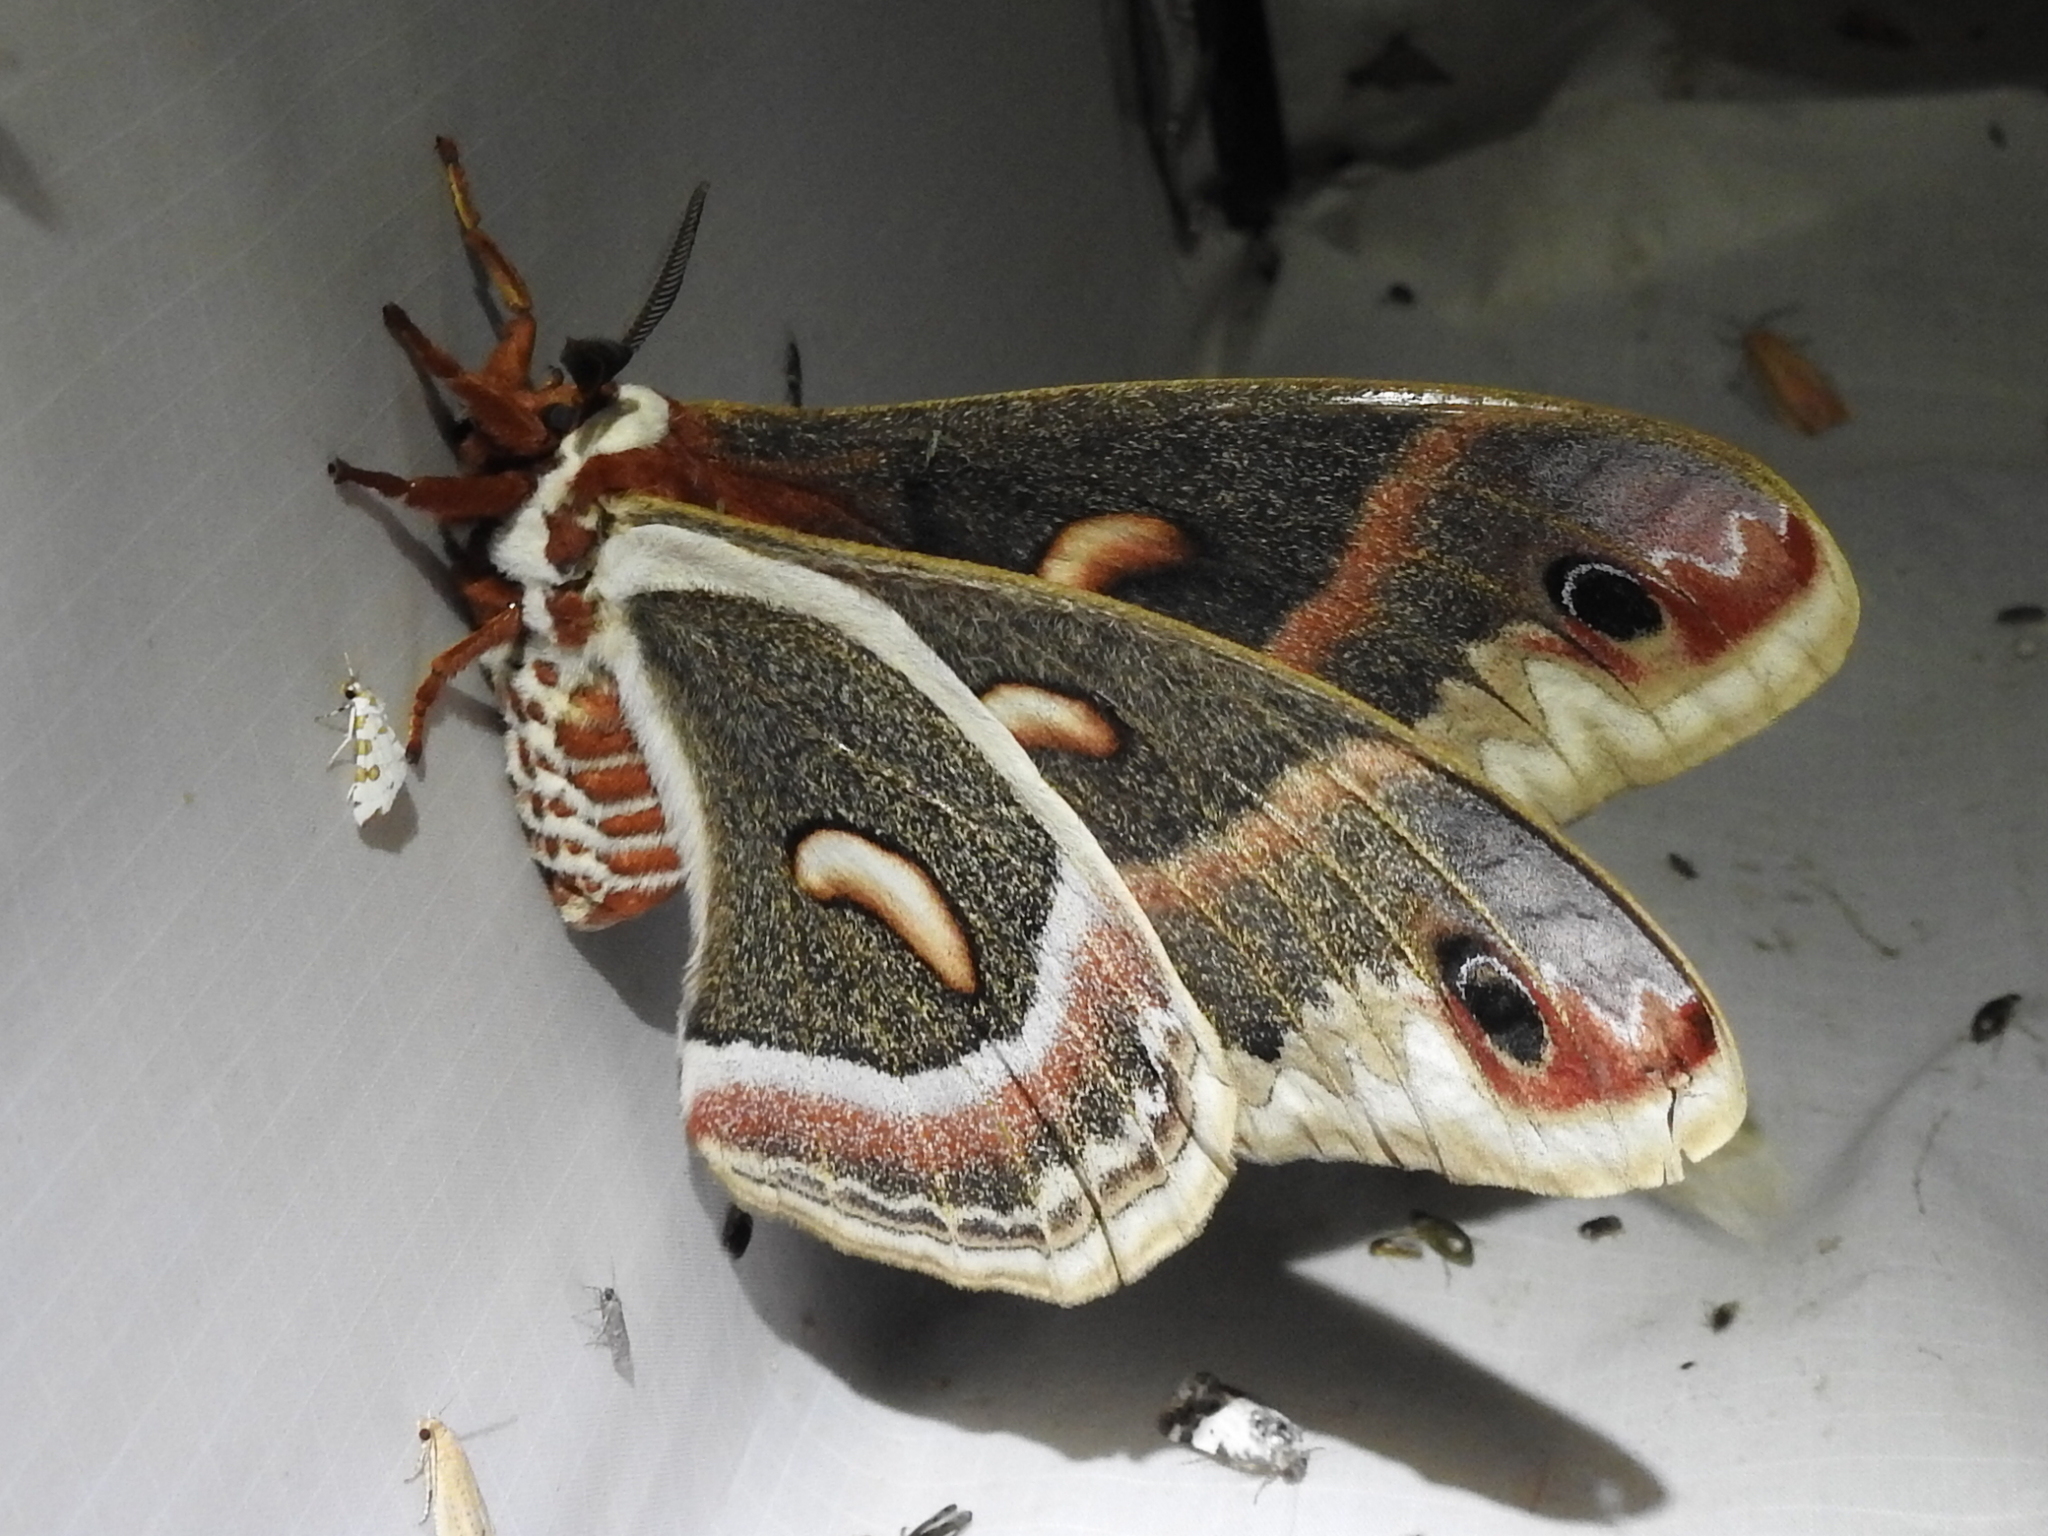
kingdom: Animalia
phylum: Arthropoda
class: Insecta
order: Lepidoptera
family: Saturniidae
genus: Hyalophora
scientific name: Hyalophora cecropia
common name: Cecropia silkmoth
